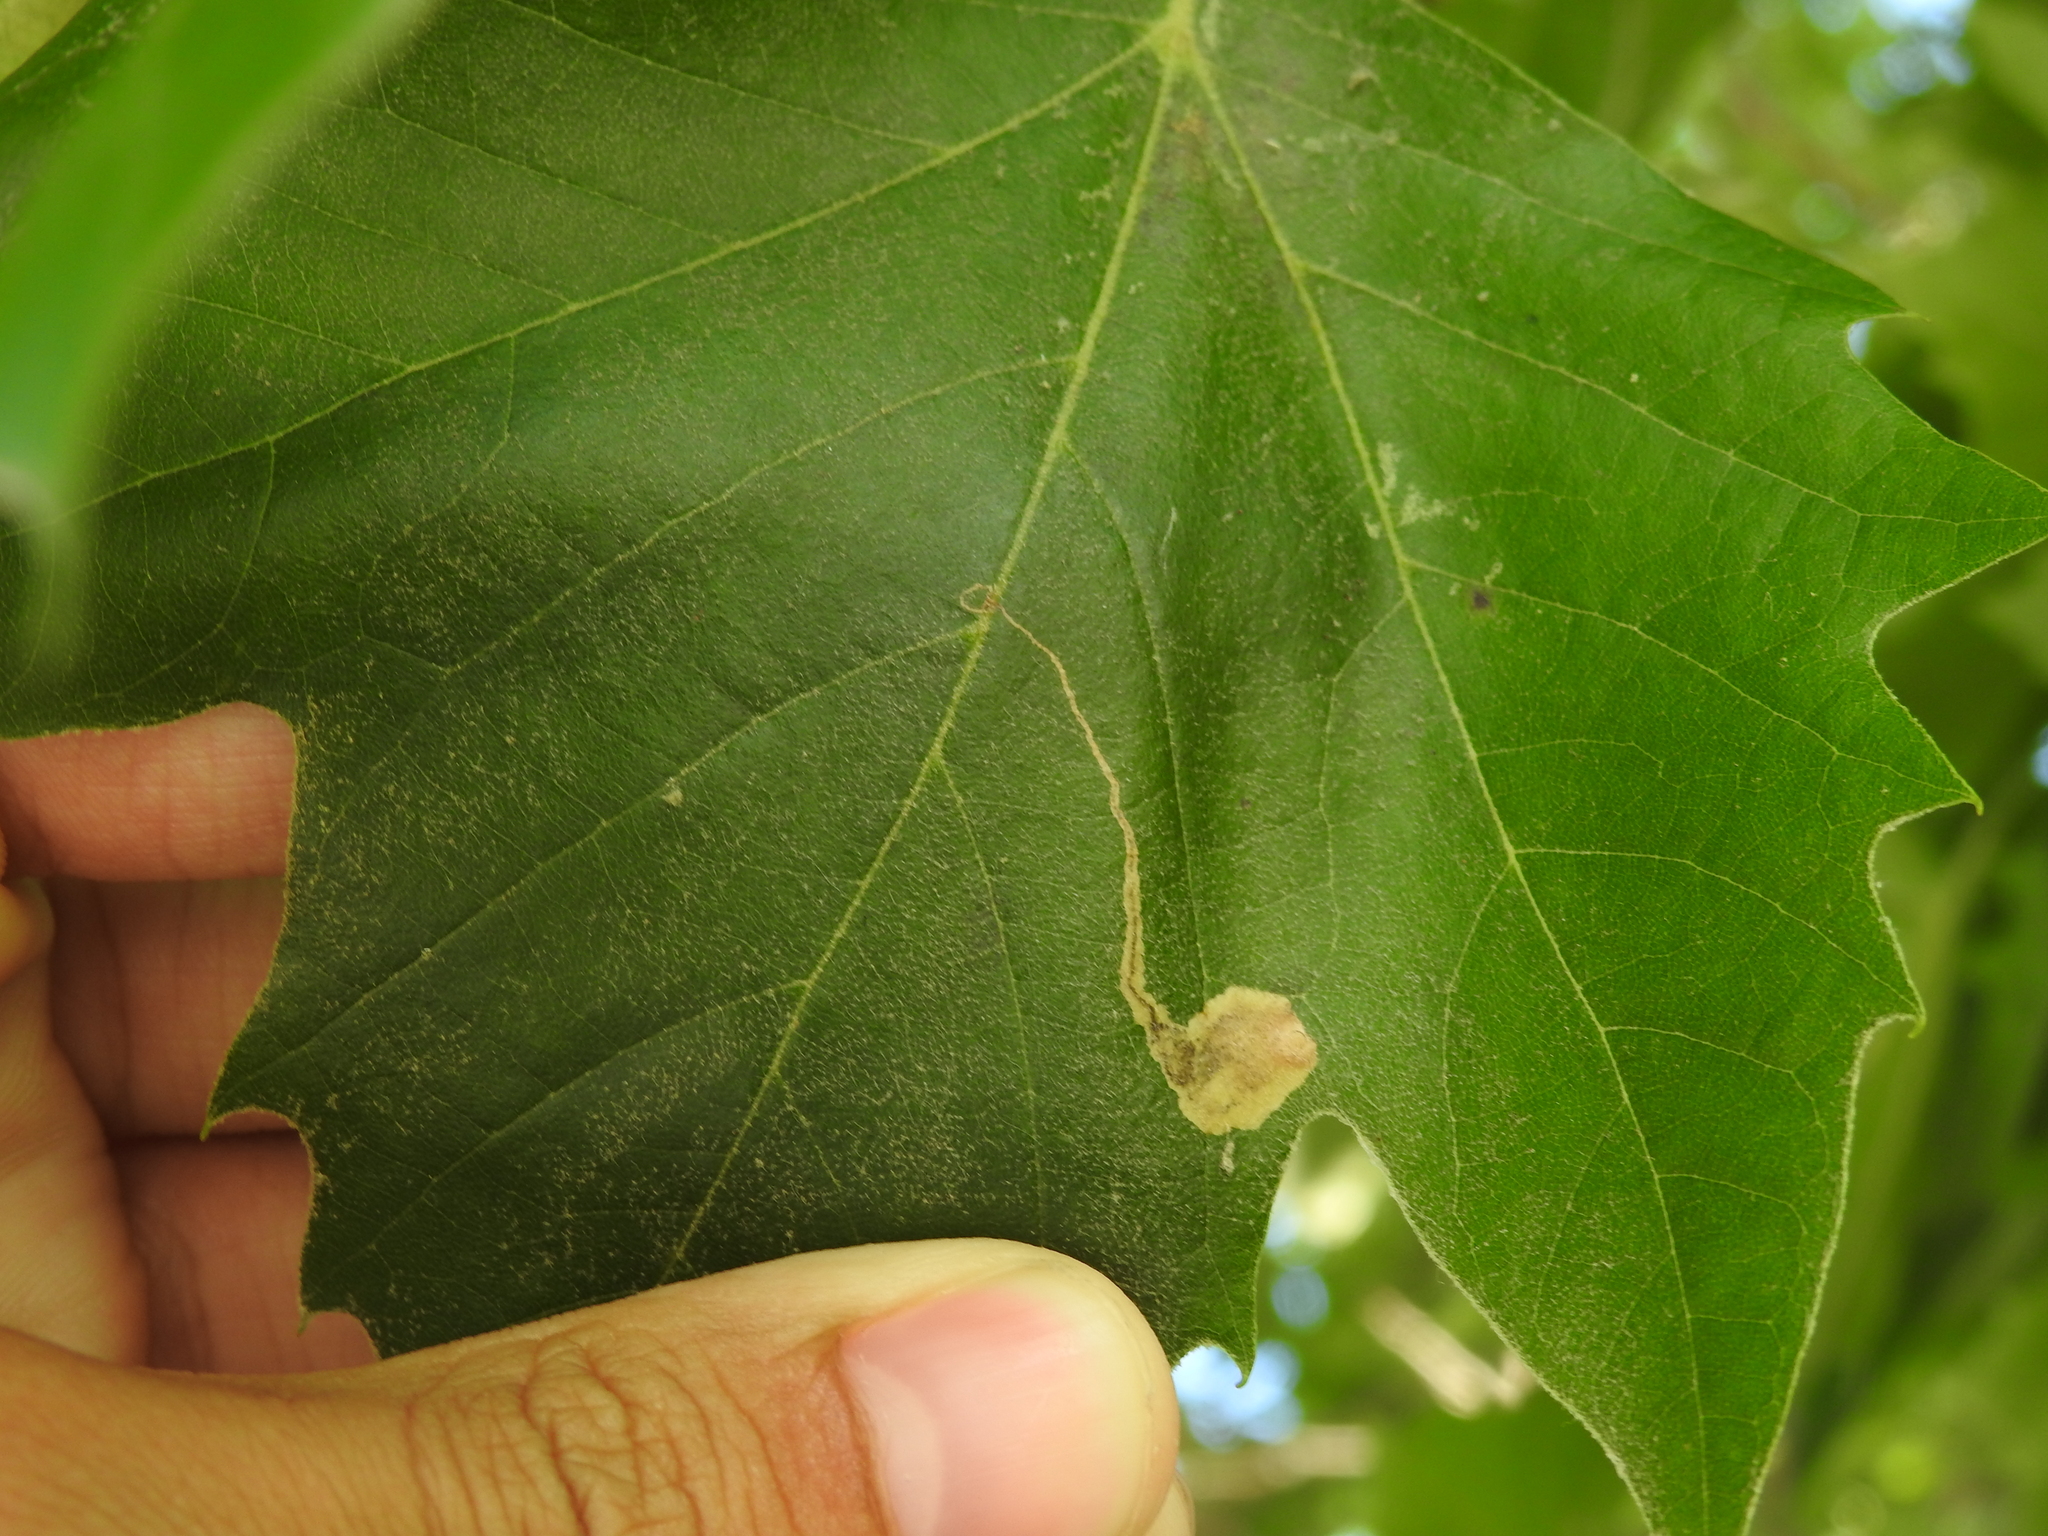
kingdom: Animalia
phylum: Arthropoda
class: Insecta
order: Lepidoptera
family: Nepticulidae
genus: Ectoedemia
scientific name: Ectoedemia clemensella
